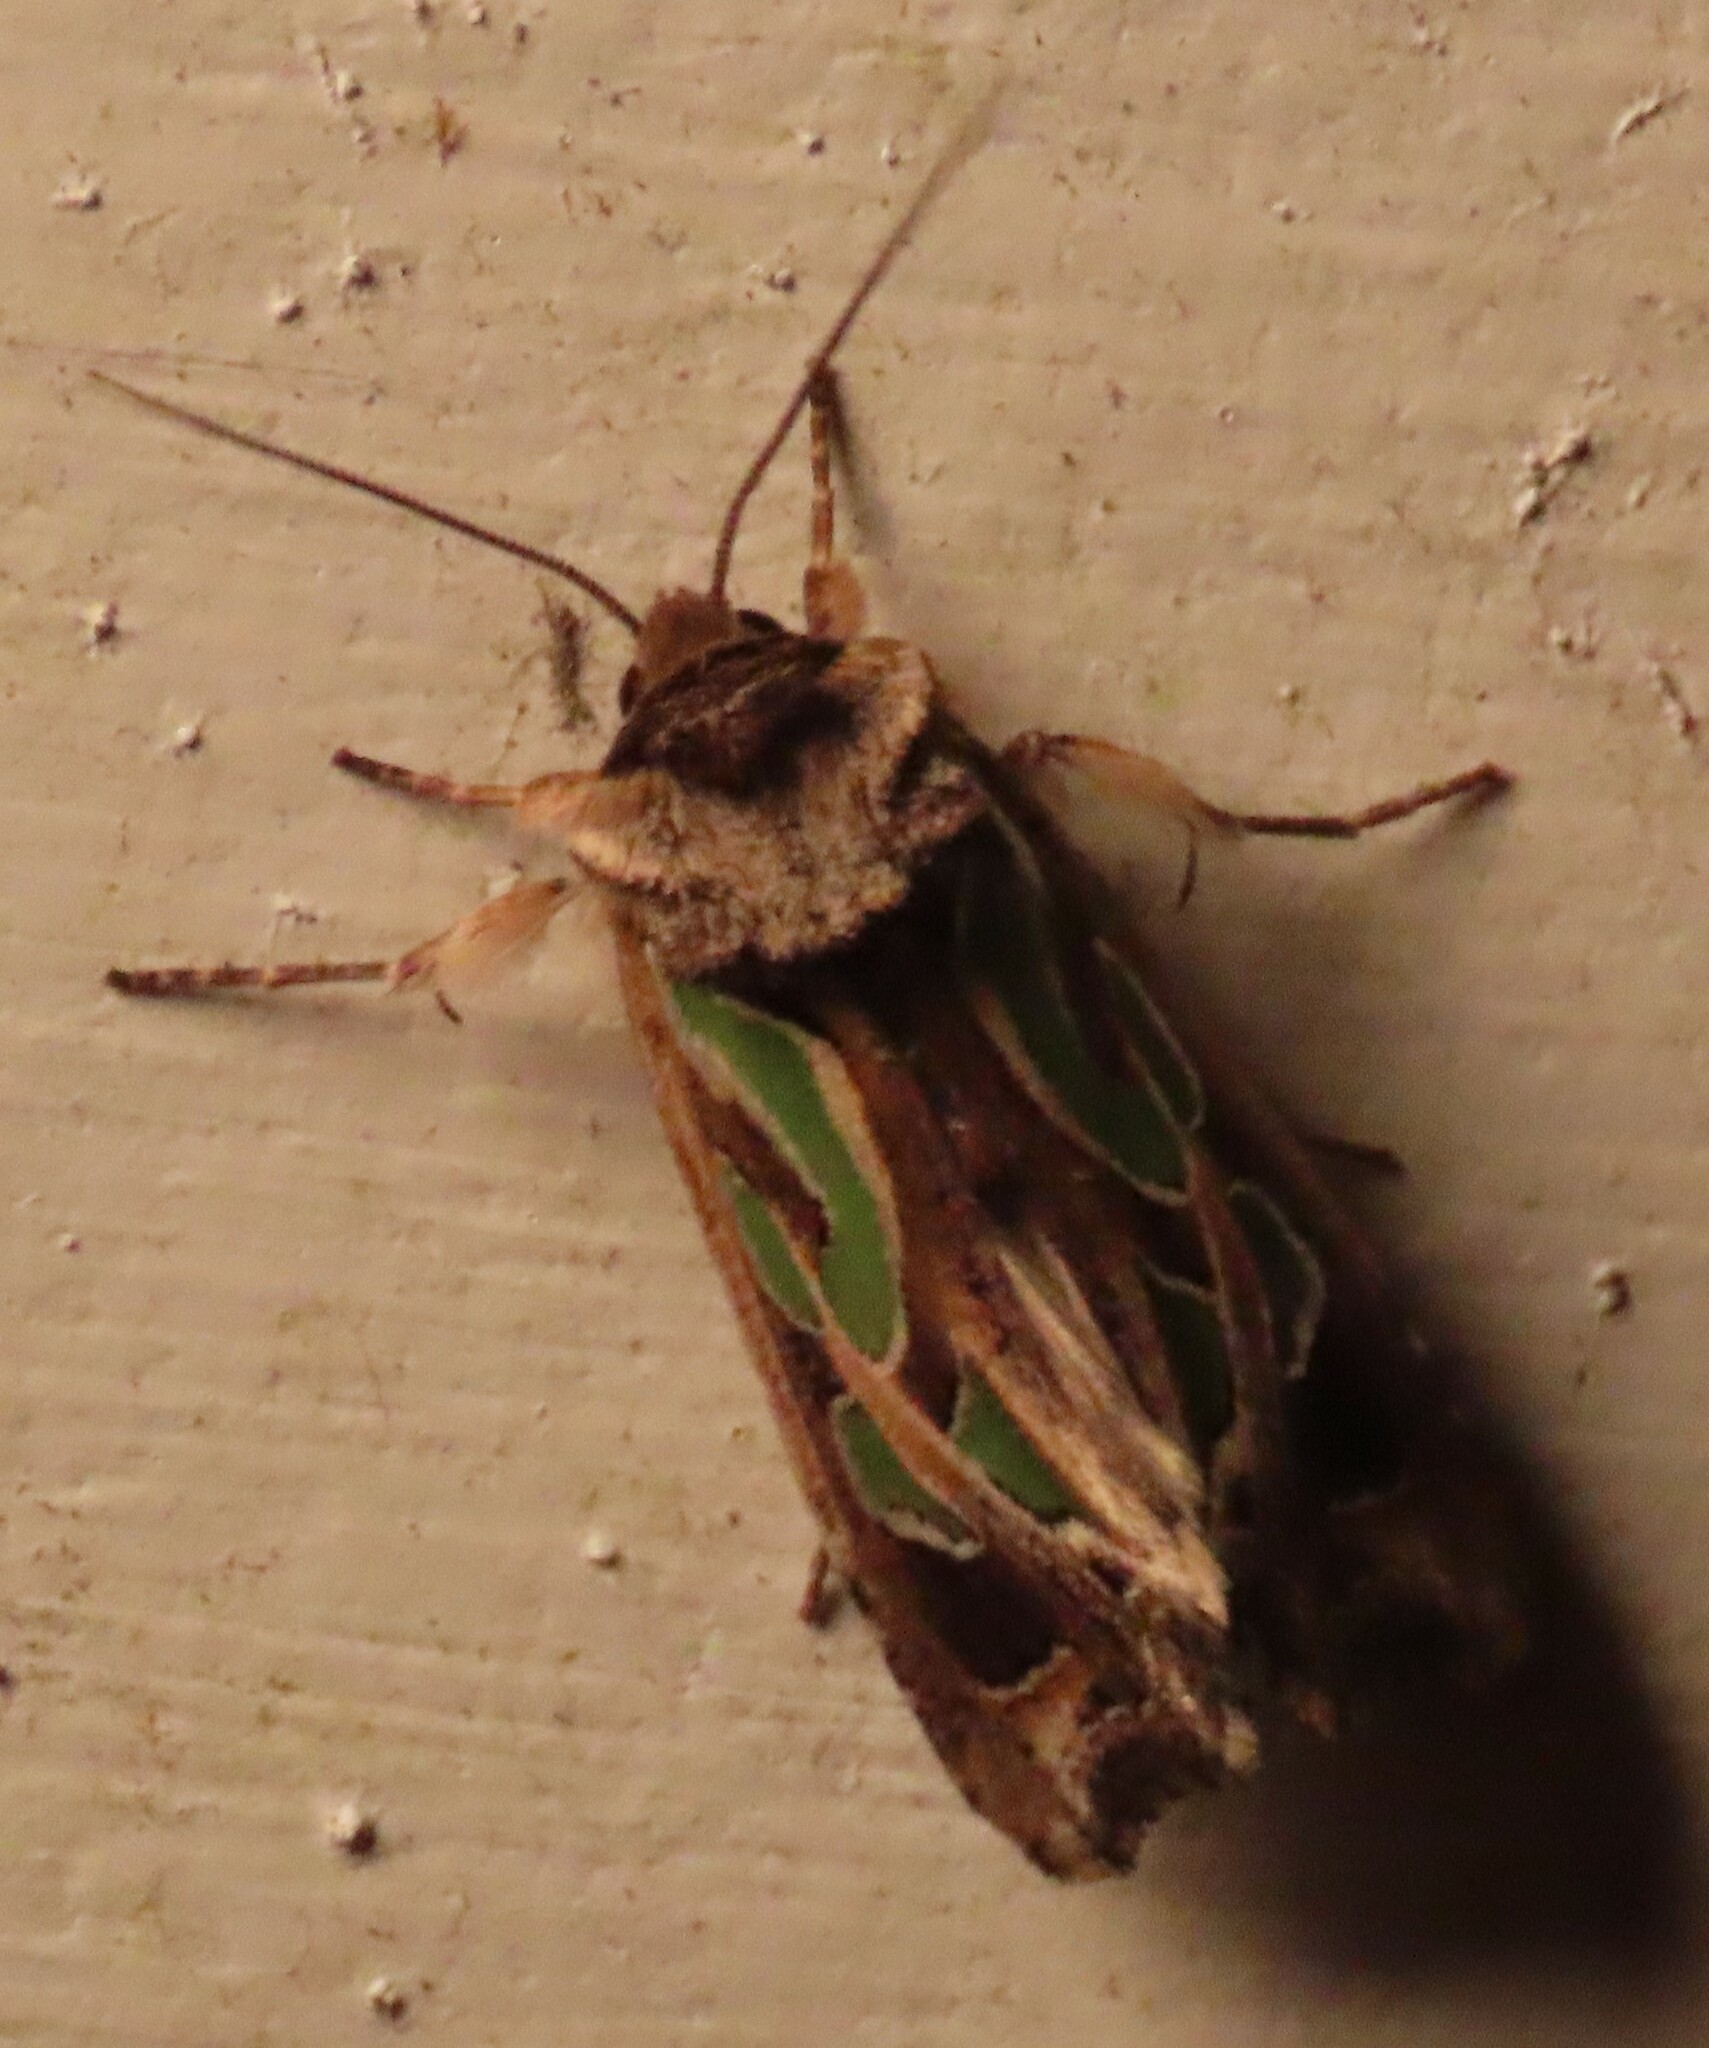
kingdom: Animalia
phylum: Arthropoda
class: Insecta
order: Lepidoptera
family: Noctuidae
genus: Cosmodes
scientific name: Cosmodes elegans
